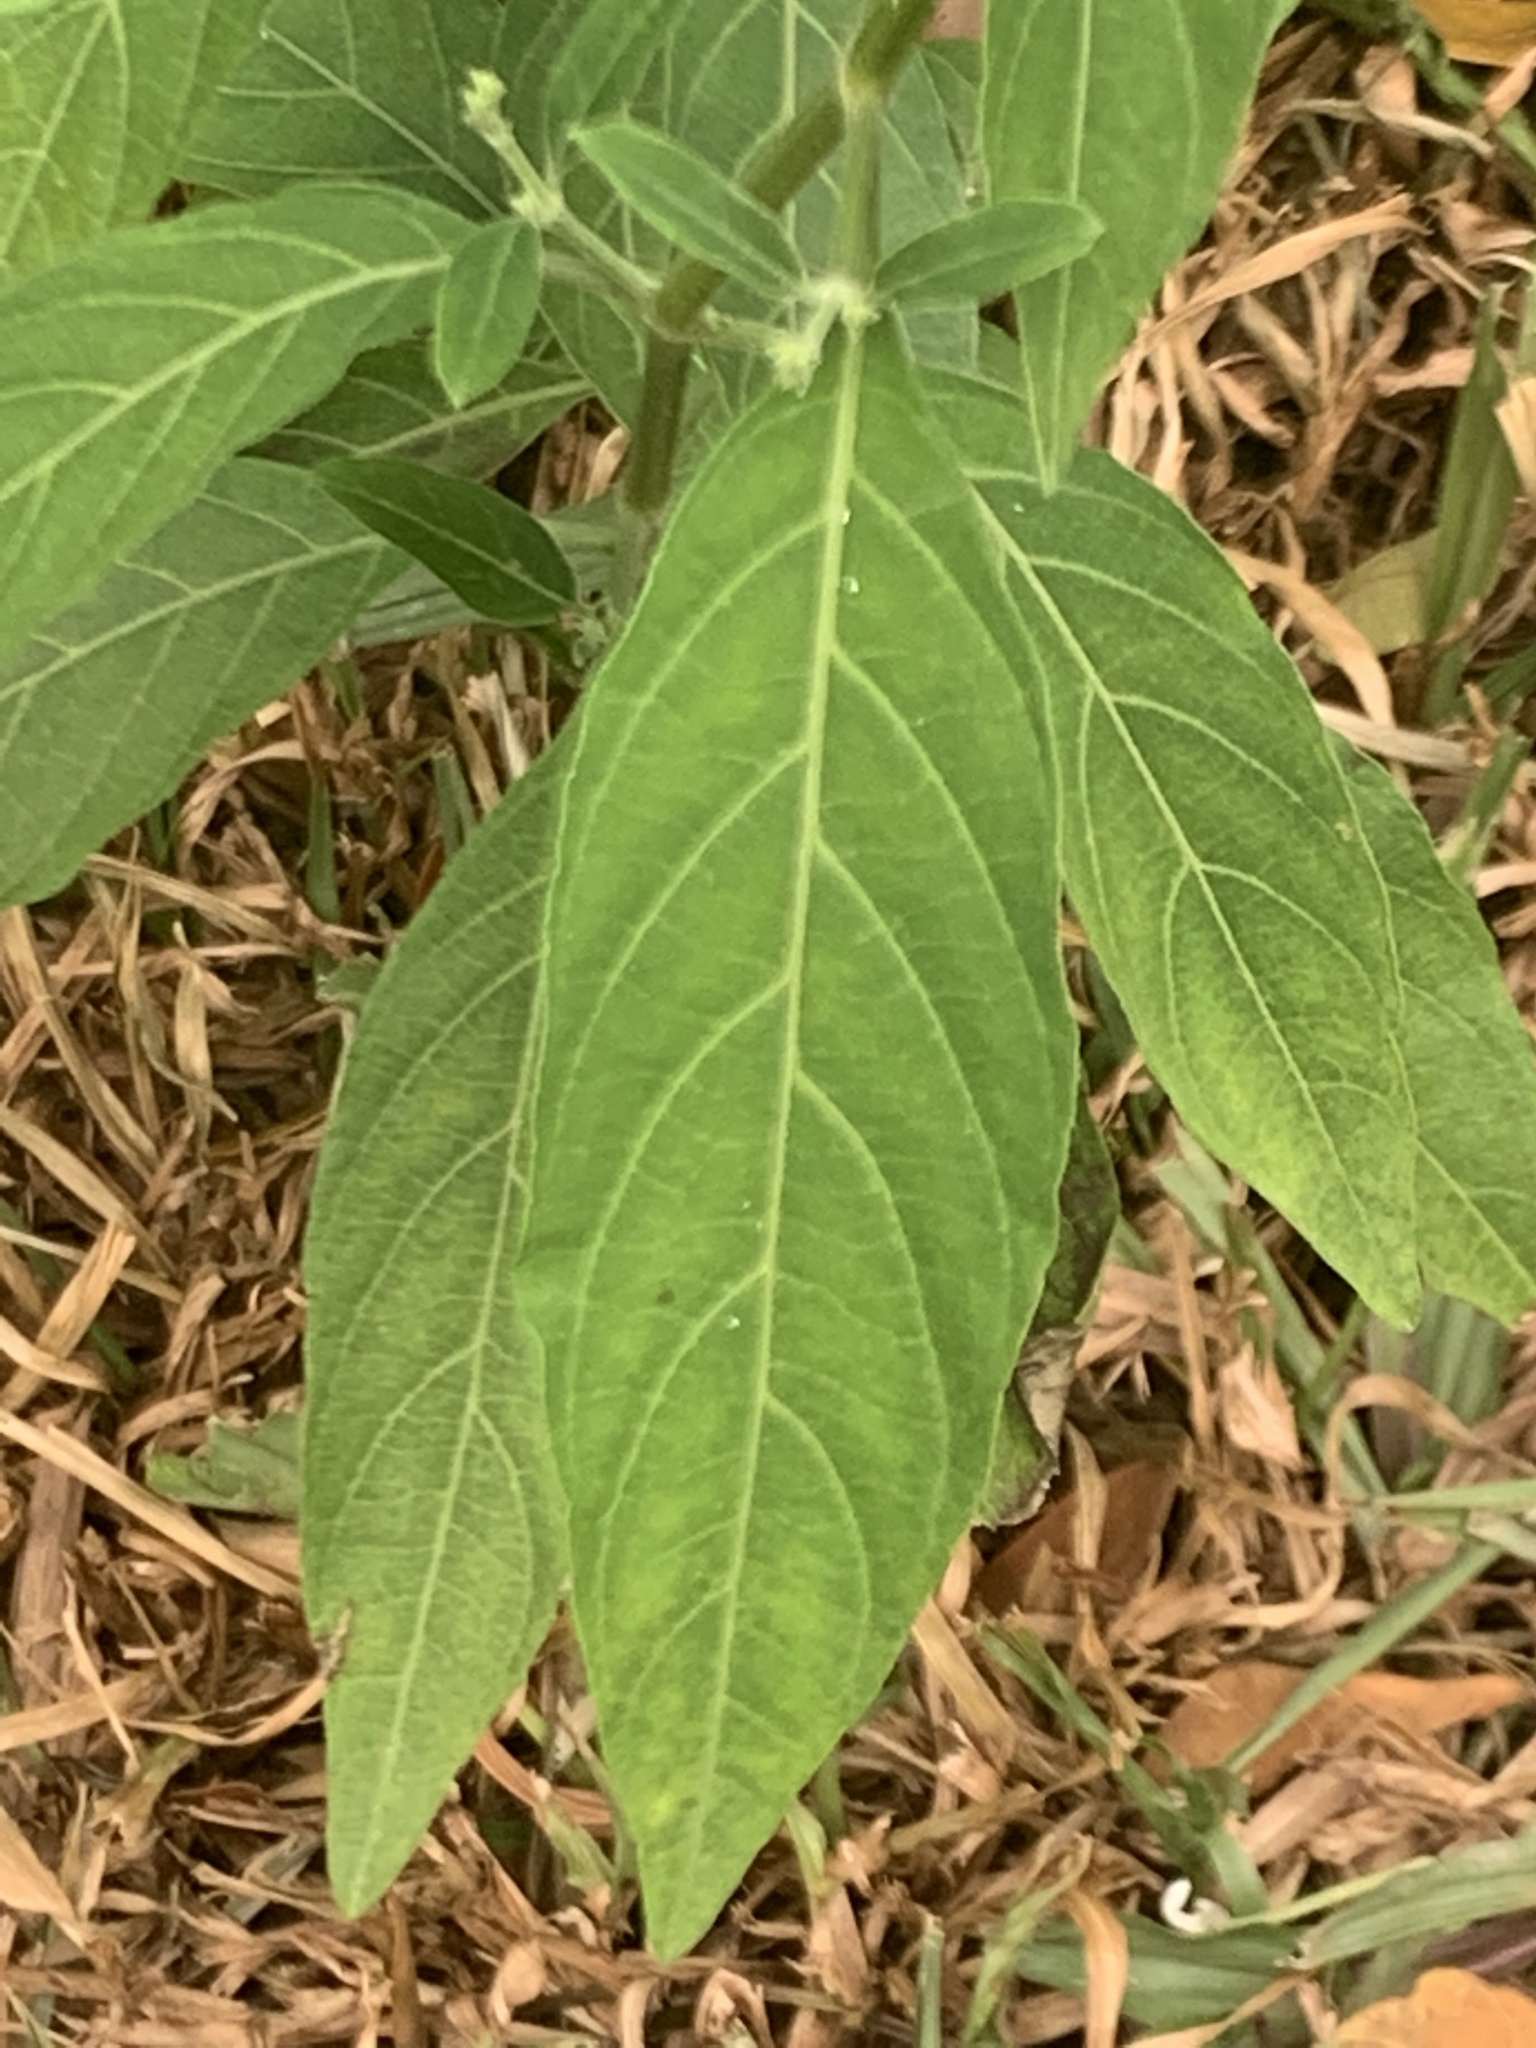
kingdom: Plantae
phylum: Tracheophyta
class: Magnoliopsida
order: Lamiales
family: Acanthaceae
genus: Rhinacanthus
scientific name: Rhinacanthus nasutus
